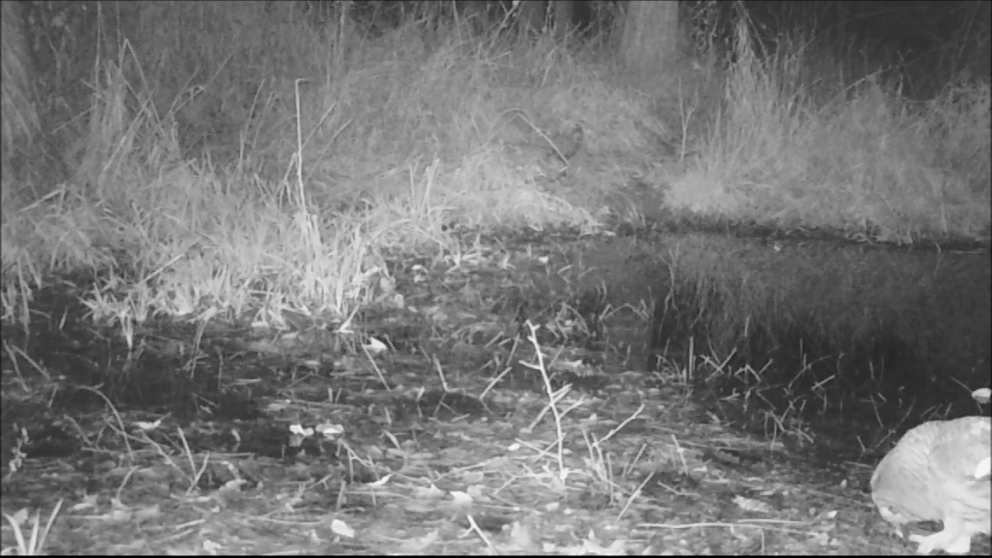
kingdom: Animalia
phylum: Chordata
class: Aves
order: Strigiformes
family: Strigidae
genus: Strix
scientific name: Strix varia
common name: Barred owl
